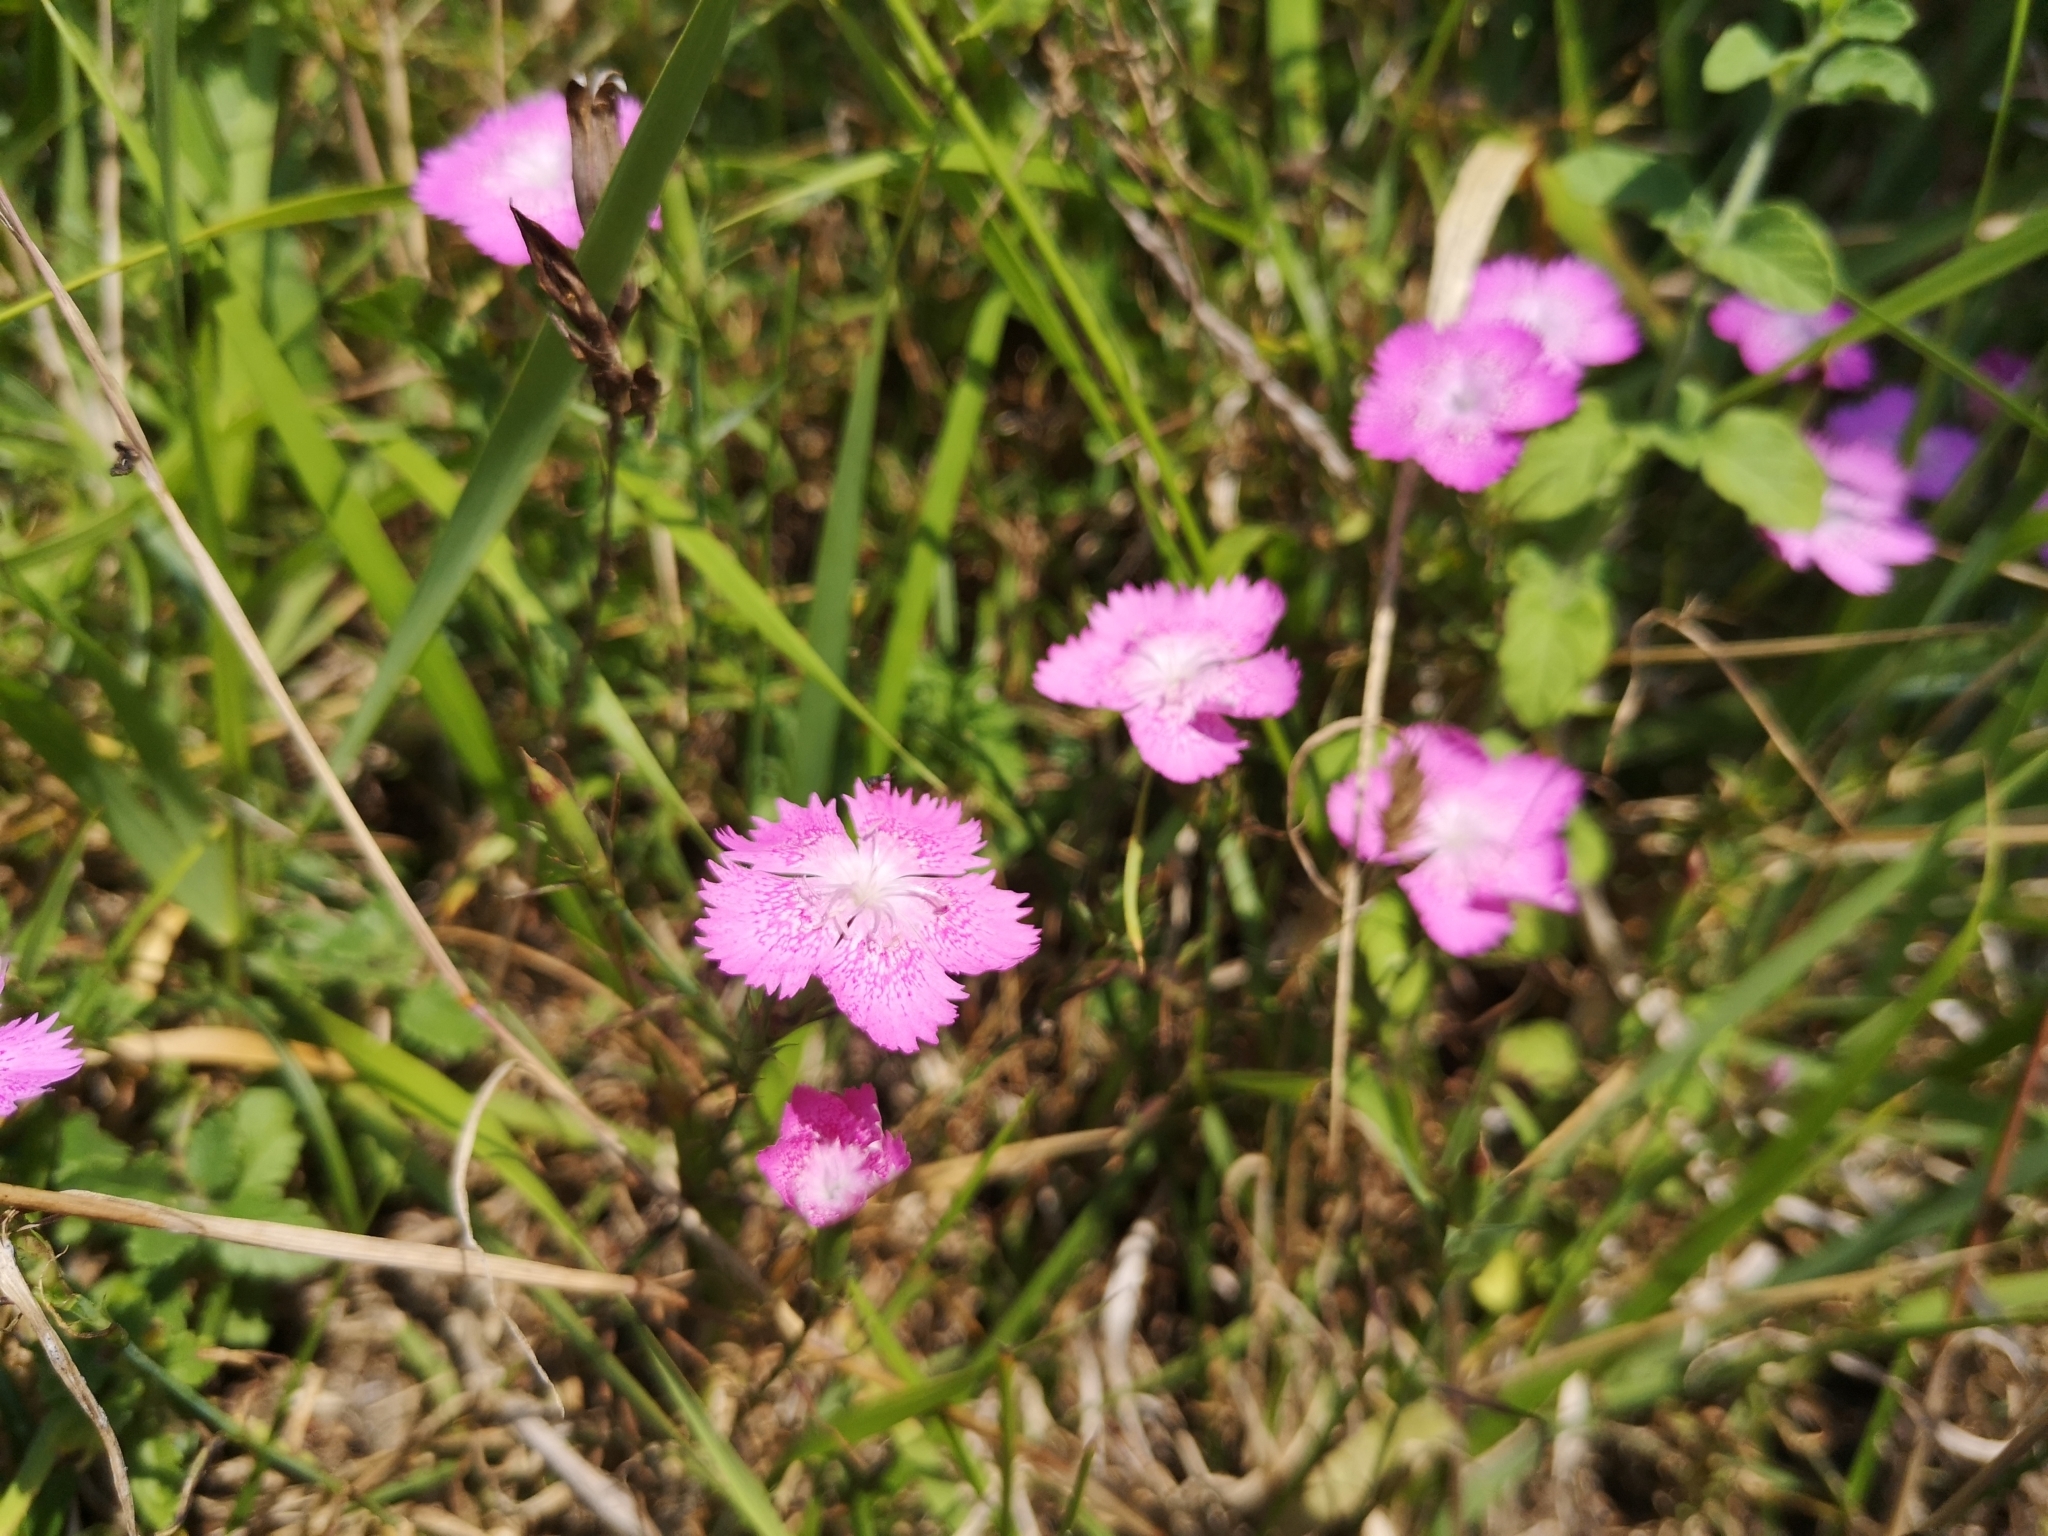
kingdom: Plantae
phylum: Tracheophyta
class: Magnoliopsida
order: Caryophyllales
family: Caryophyllaceae
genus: Dianthus
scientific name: Dianthus seguieri
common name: Ragged pink
